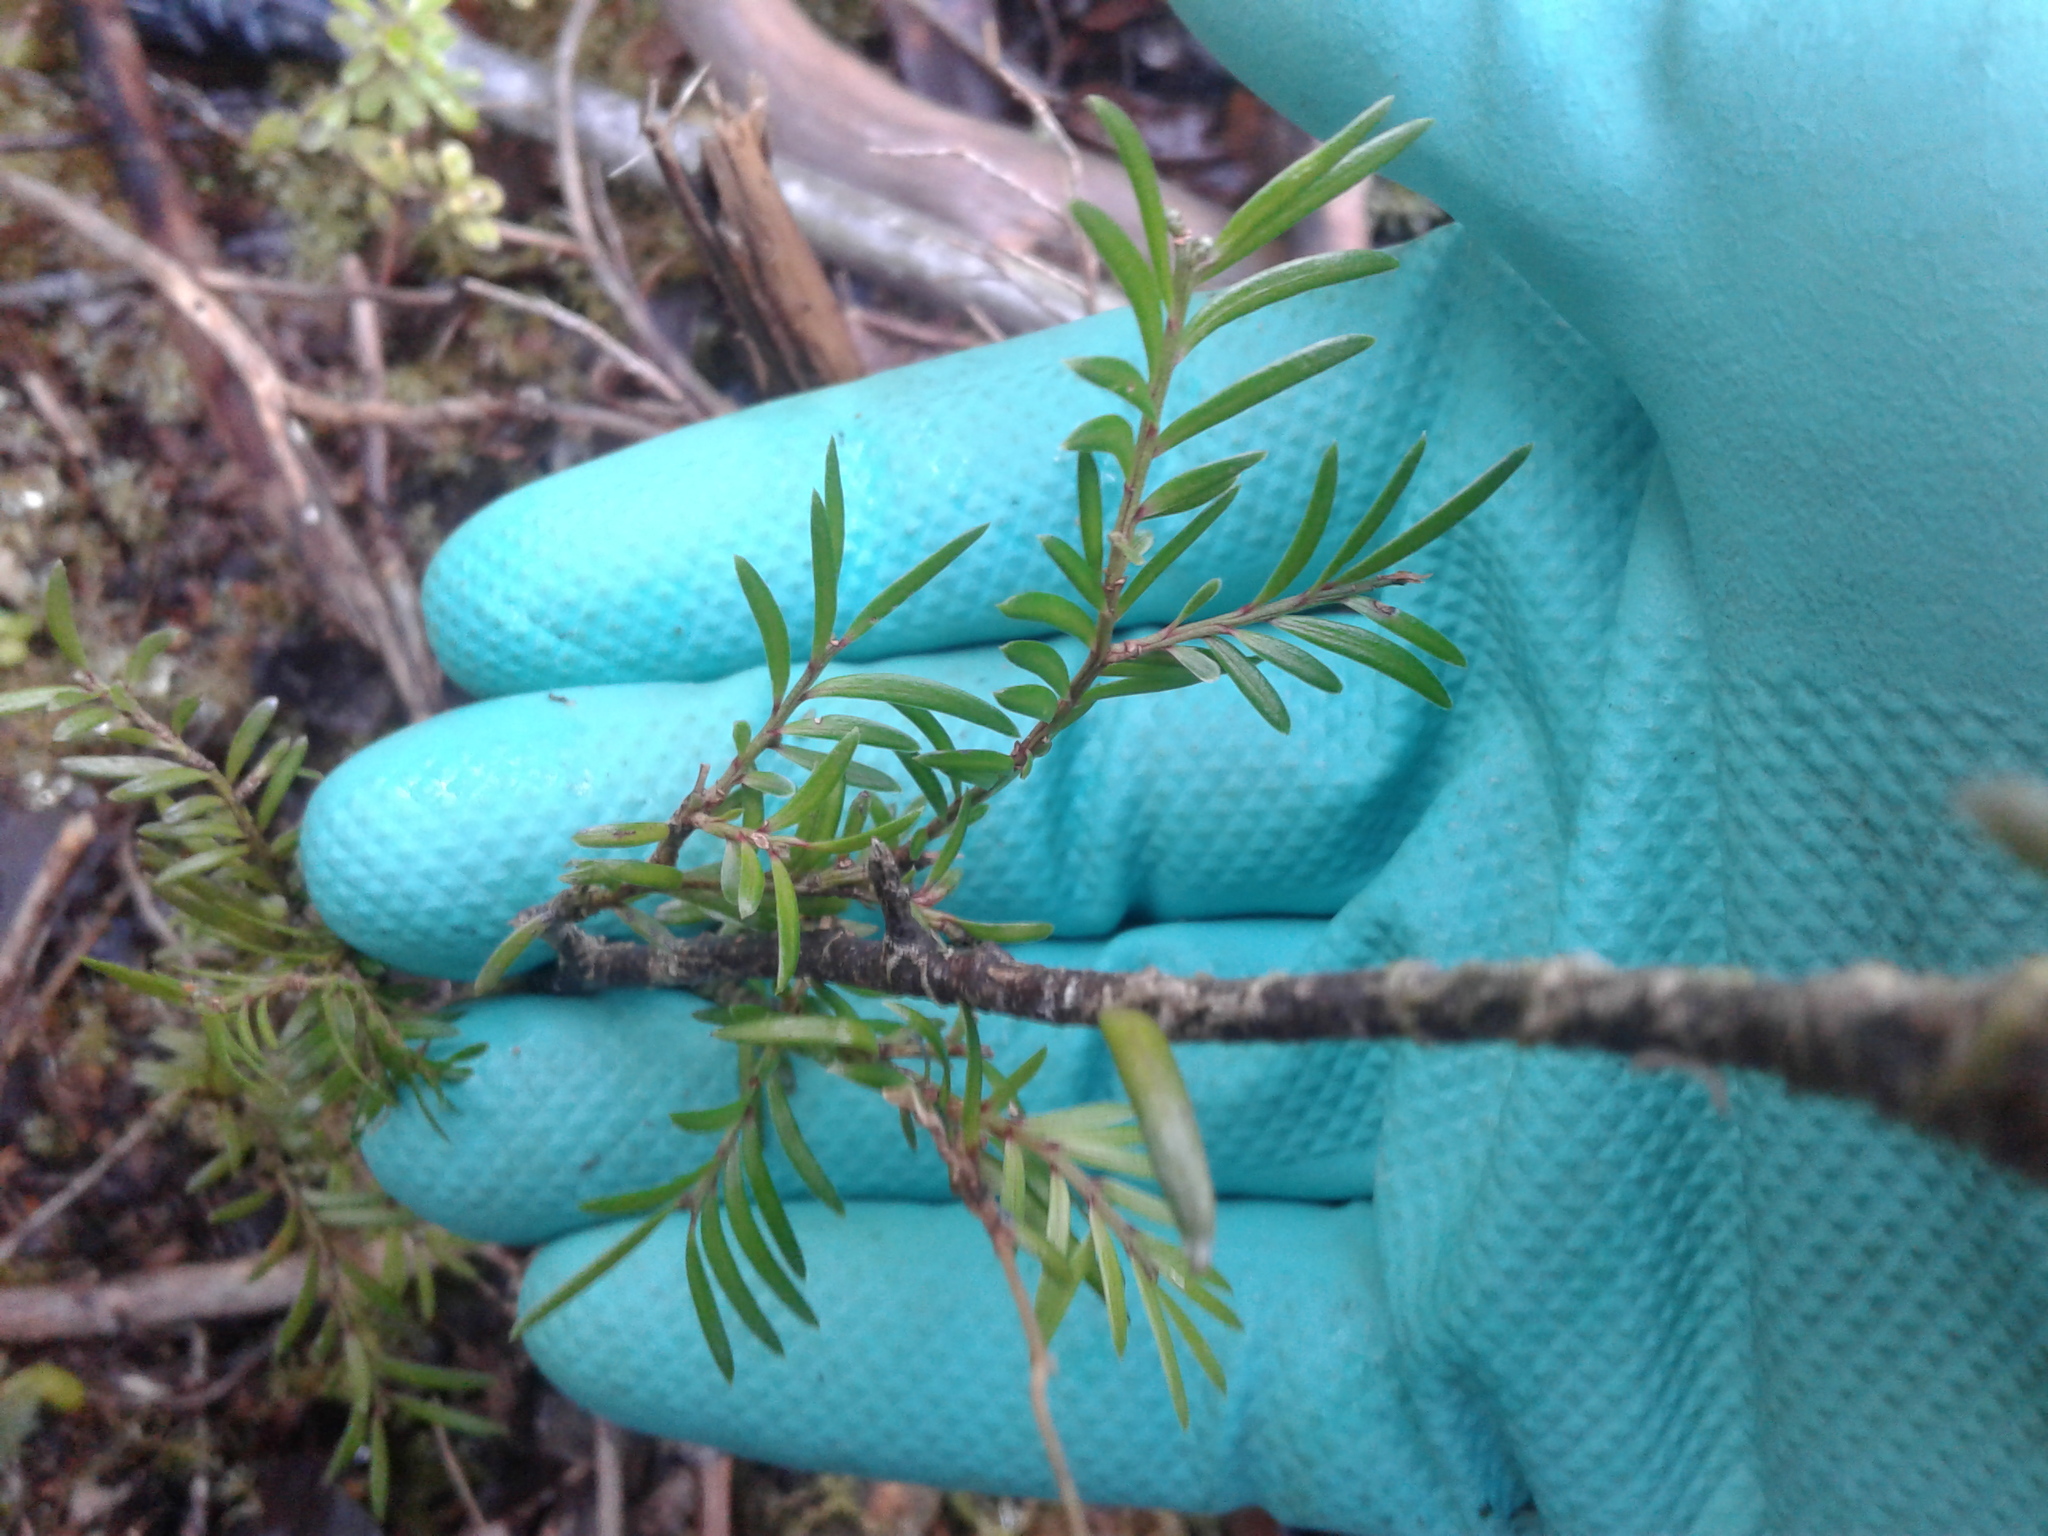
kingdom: Plantae
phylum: Tracheophyta
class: Pinopsida
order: Pinales
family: Podocarpaceae
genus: Prumnopitys
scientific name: Prumnopitys ferruginea
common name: Brown pine
